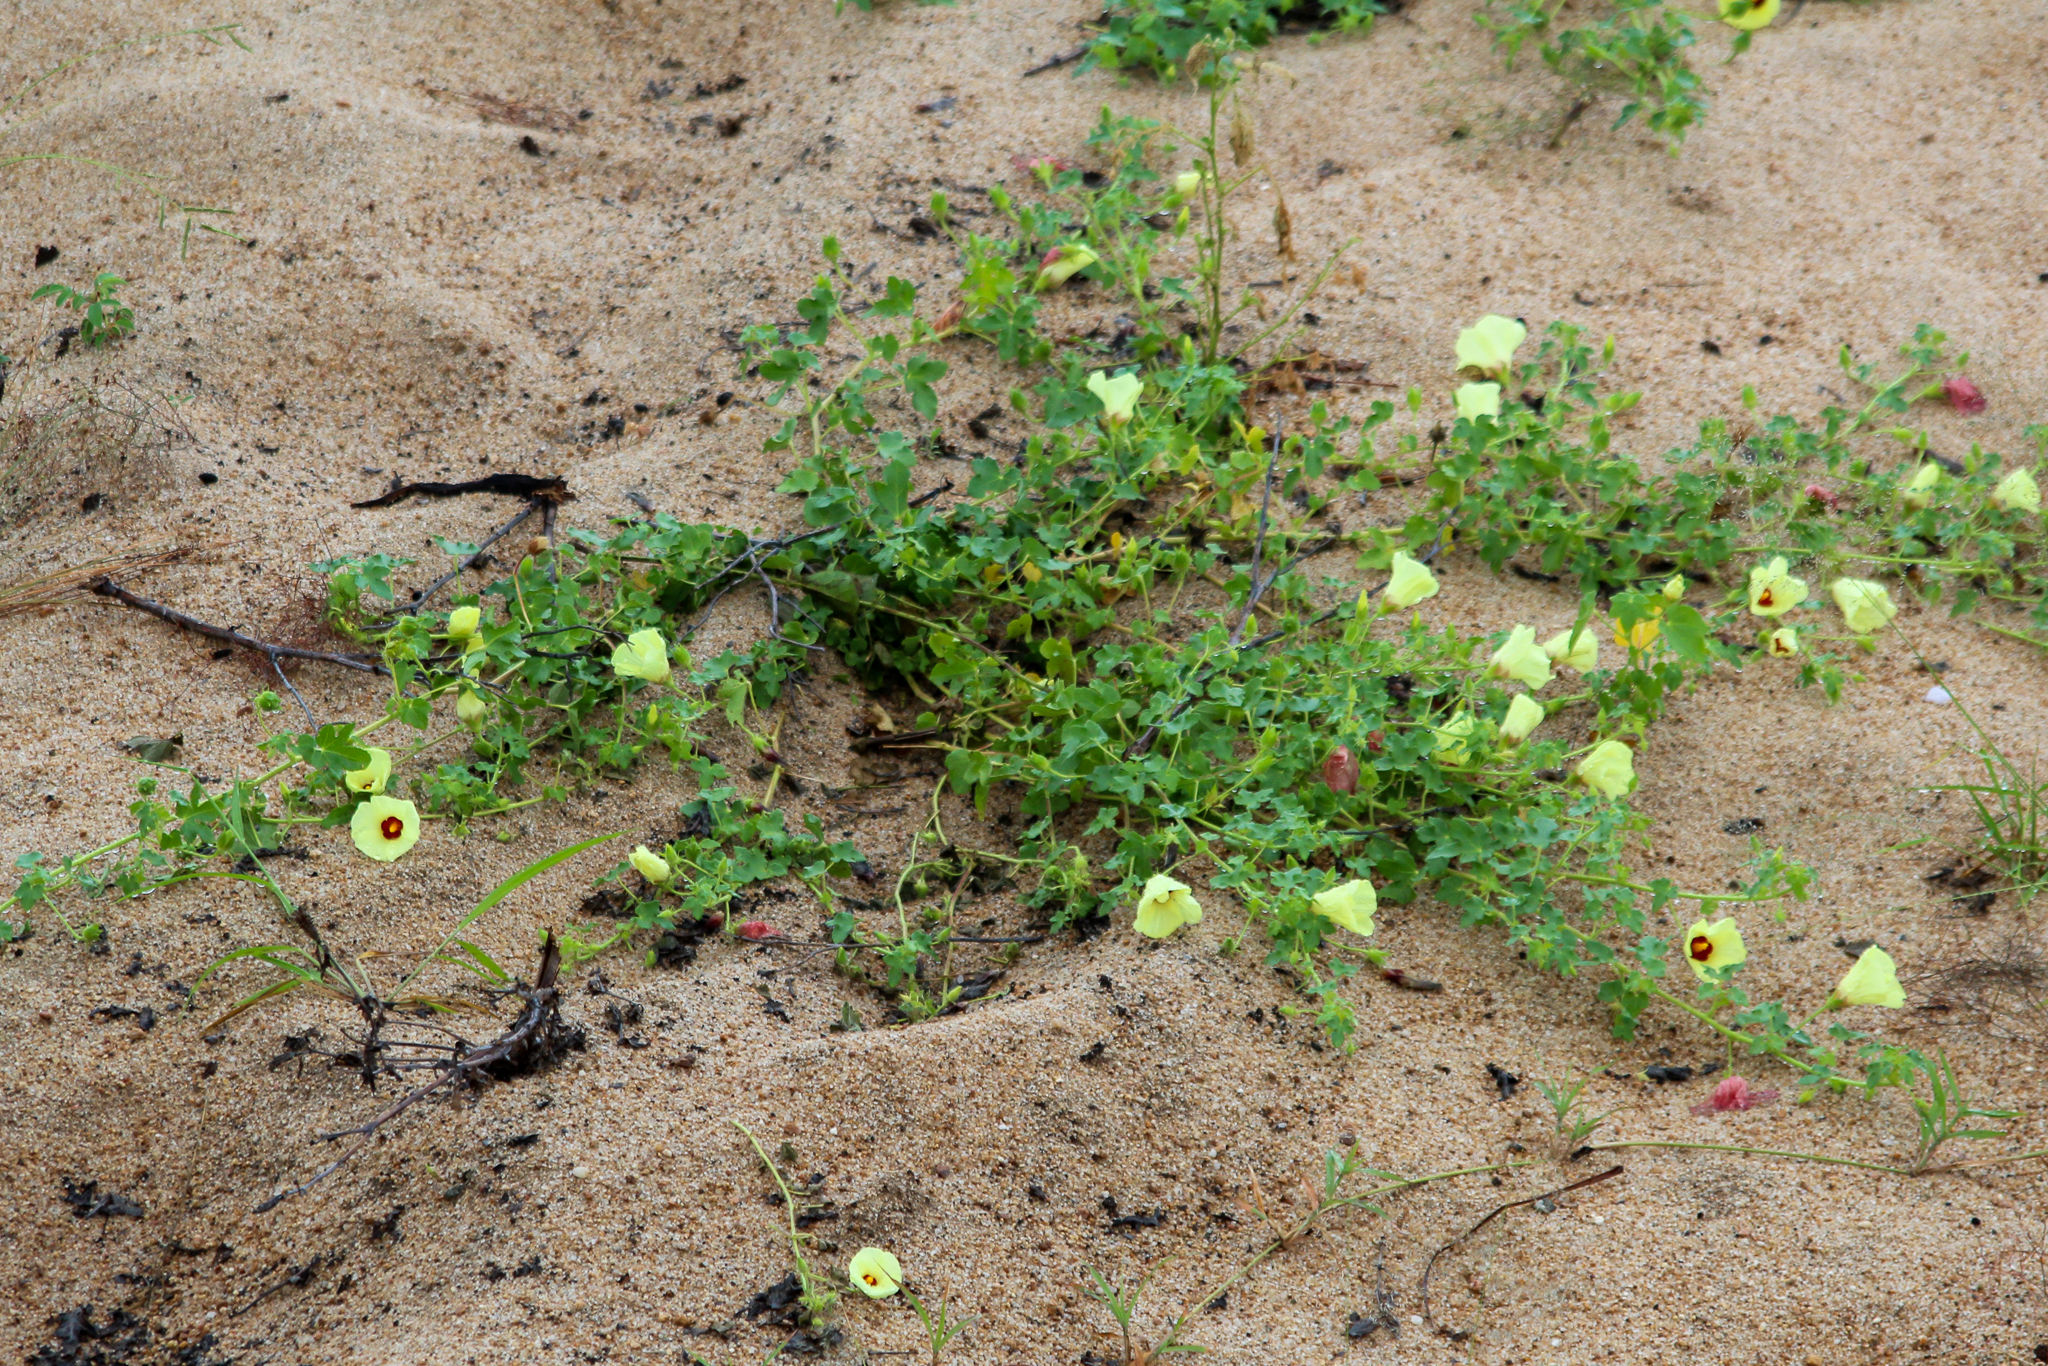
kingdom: Plantae
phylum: Tracheophyta
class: Magnoliopsida
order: Malvales
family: Malvaceae
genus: Hibiscus
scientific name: Hibiscus schinzii
